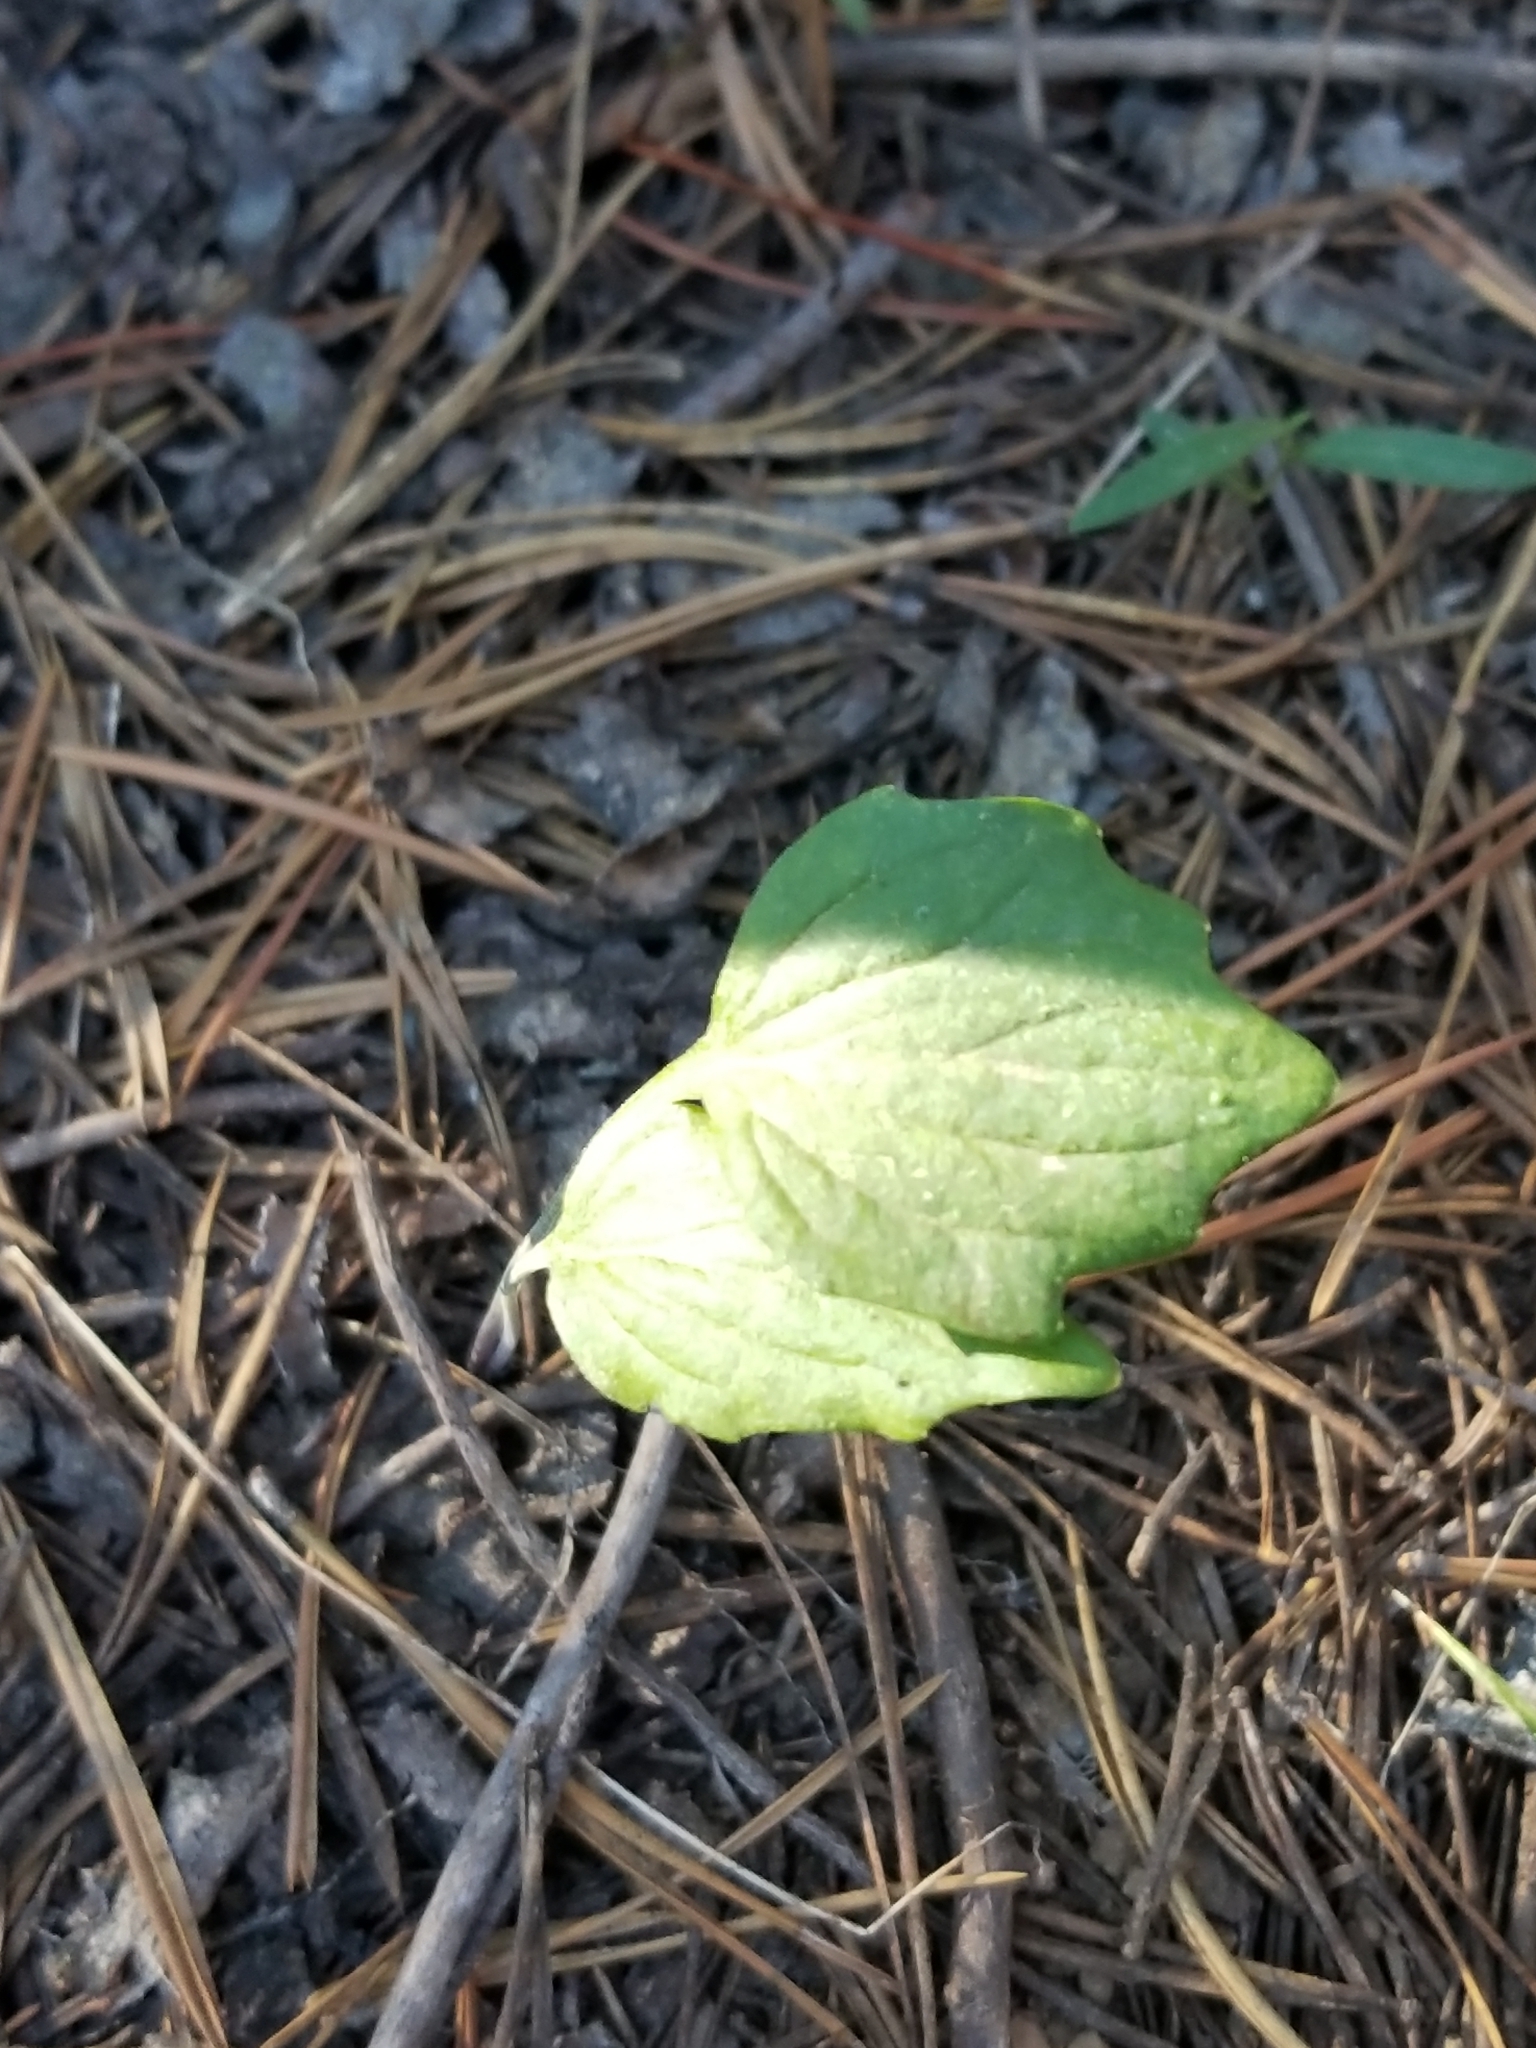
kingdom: Plantae
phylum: Tracheophyta
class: Magnoliopsida
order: Malpighiales
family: Violaceae
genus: Viola
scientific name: Viola purpurea
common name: Pine violet
